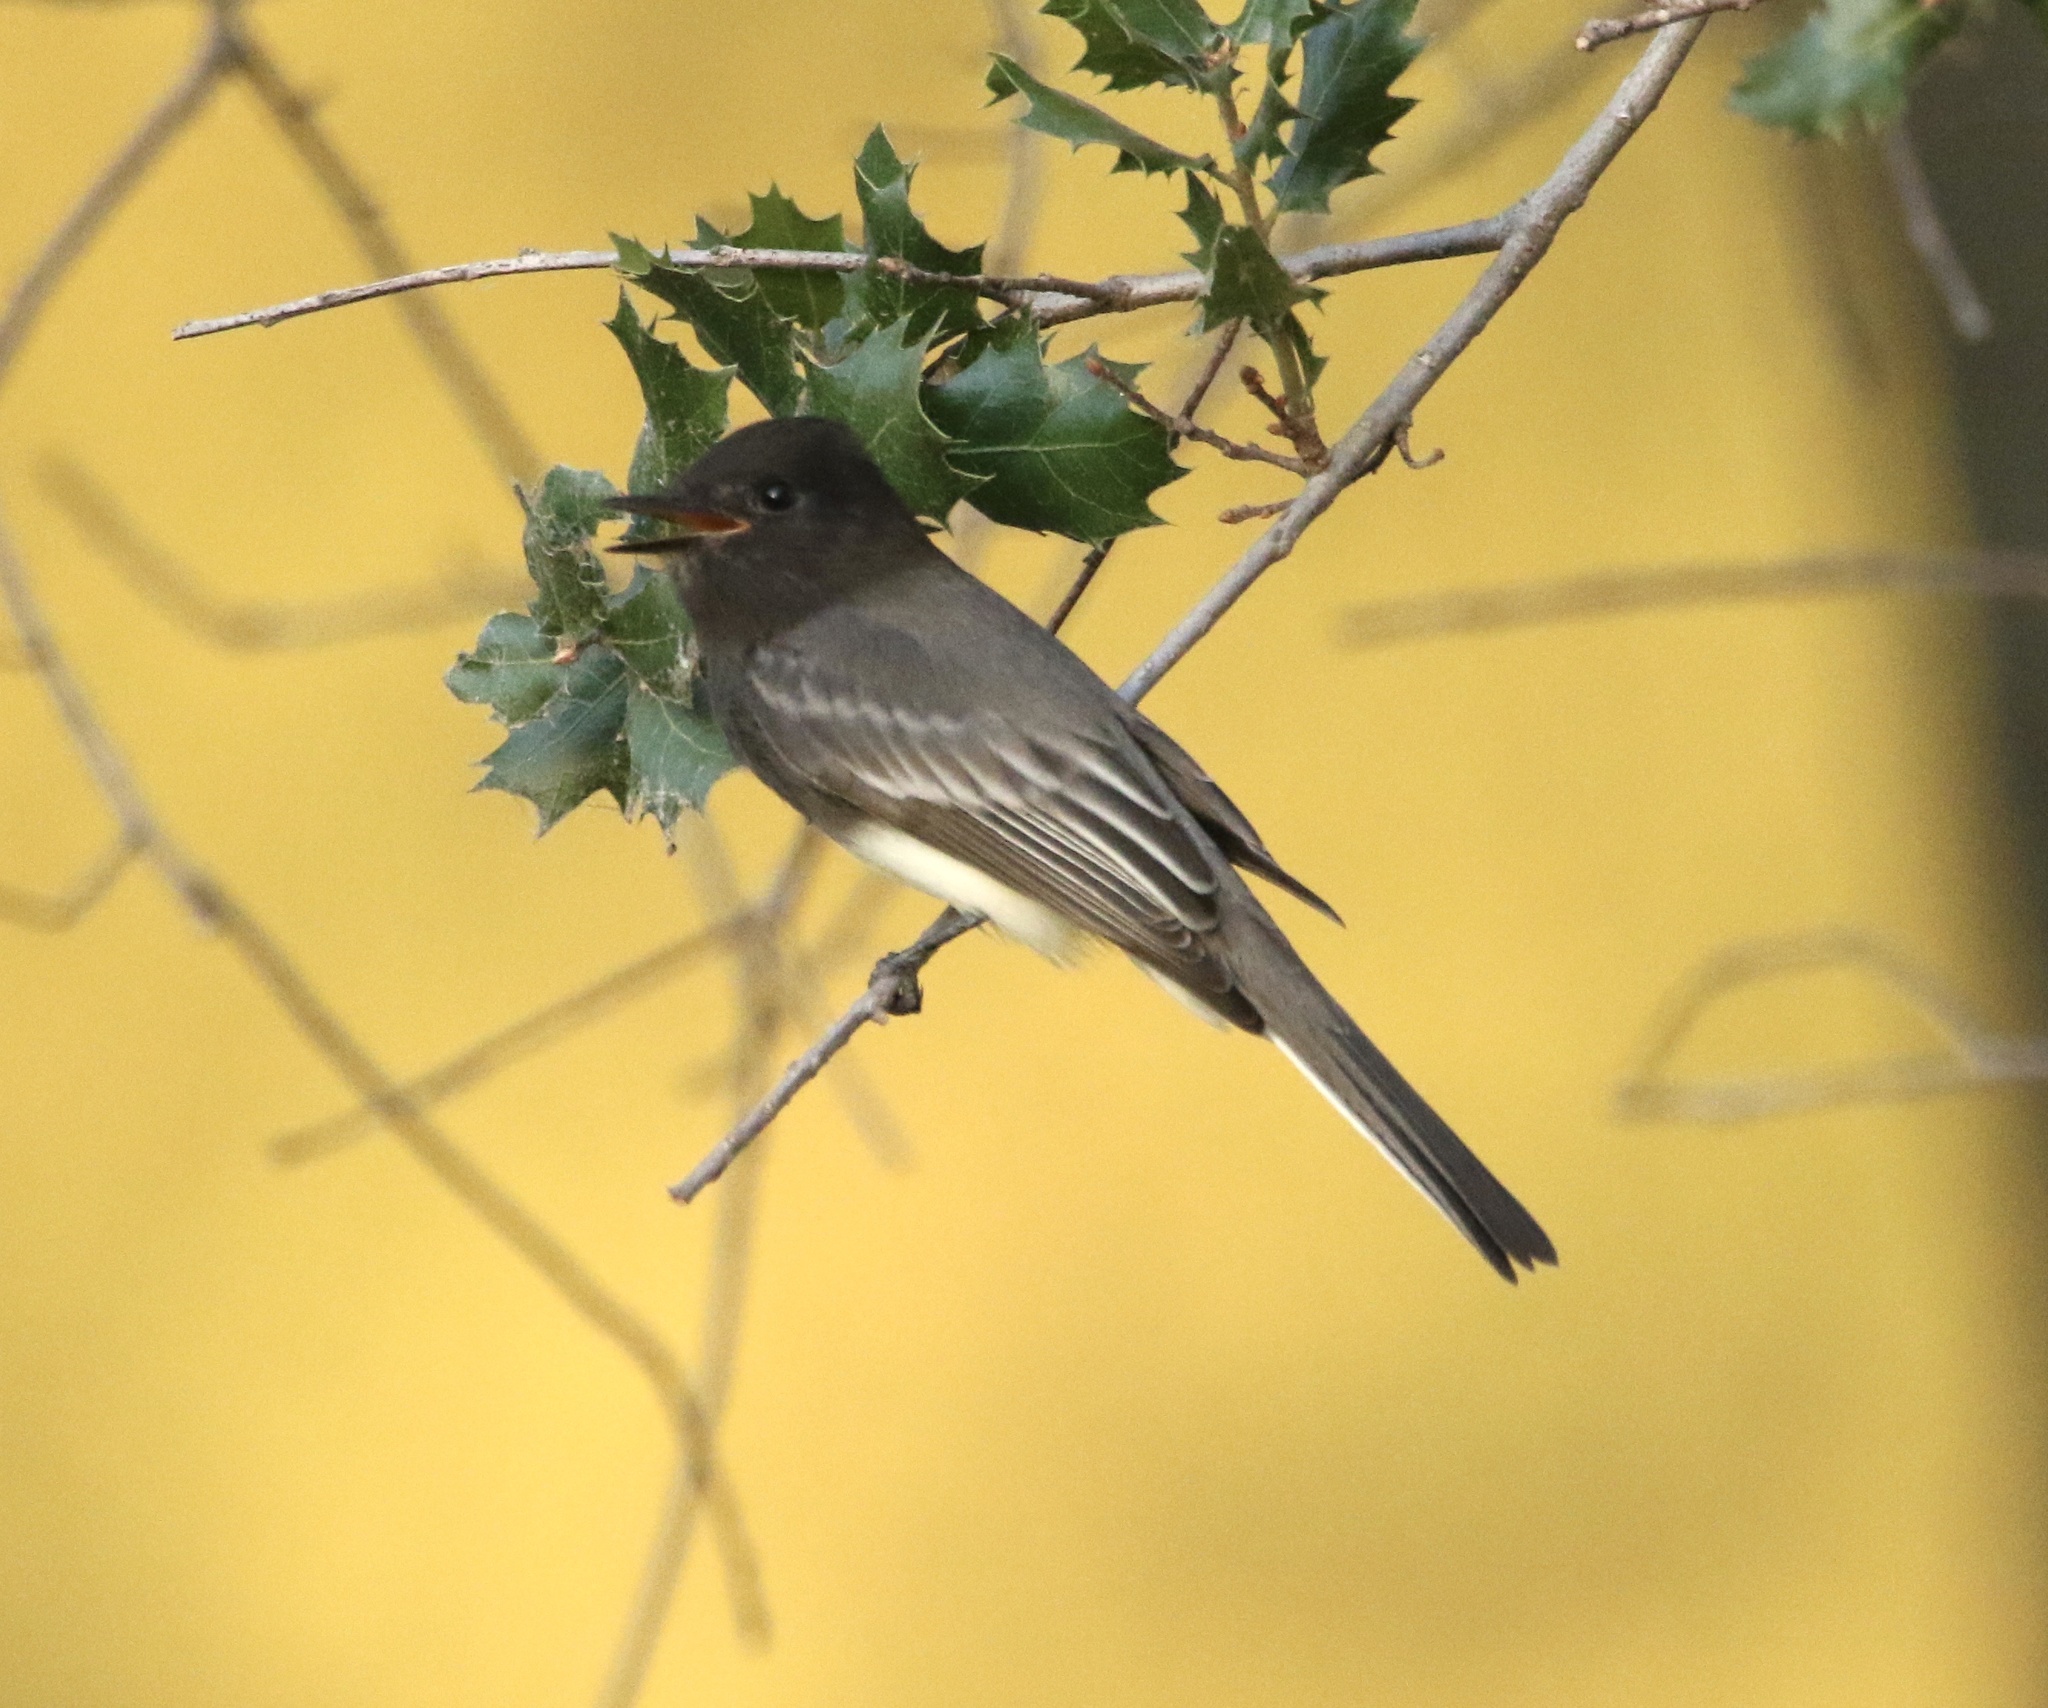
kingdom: Animalia
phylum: Chordata
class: Aves
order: Passeriformes
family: Tyrannidae
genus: Sayornis
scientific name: Sayornis nigricans
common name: Black phoebe
